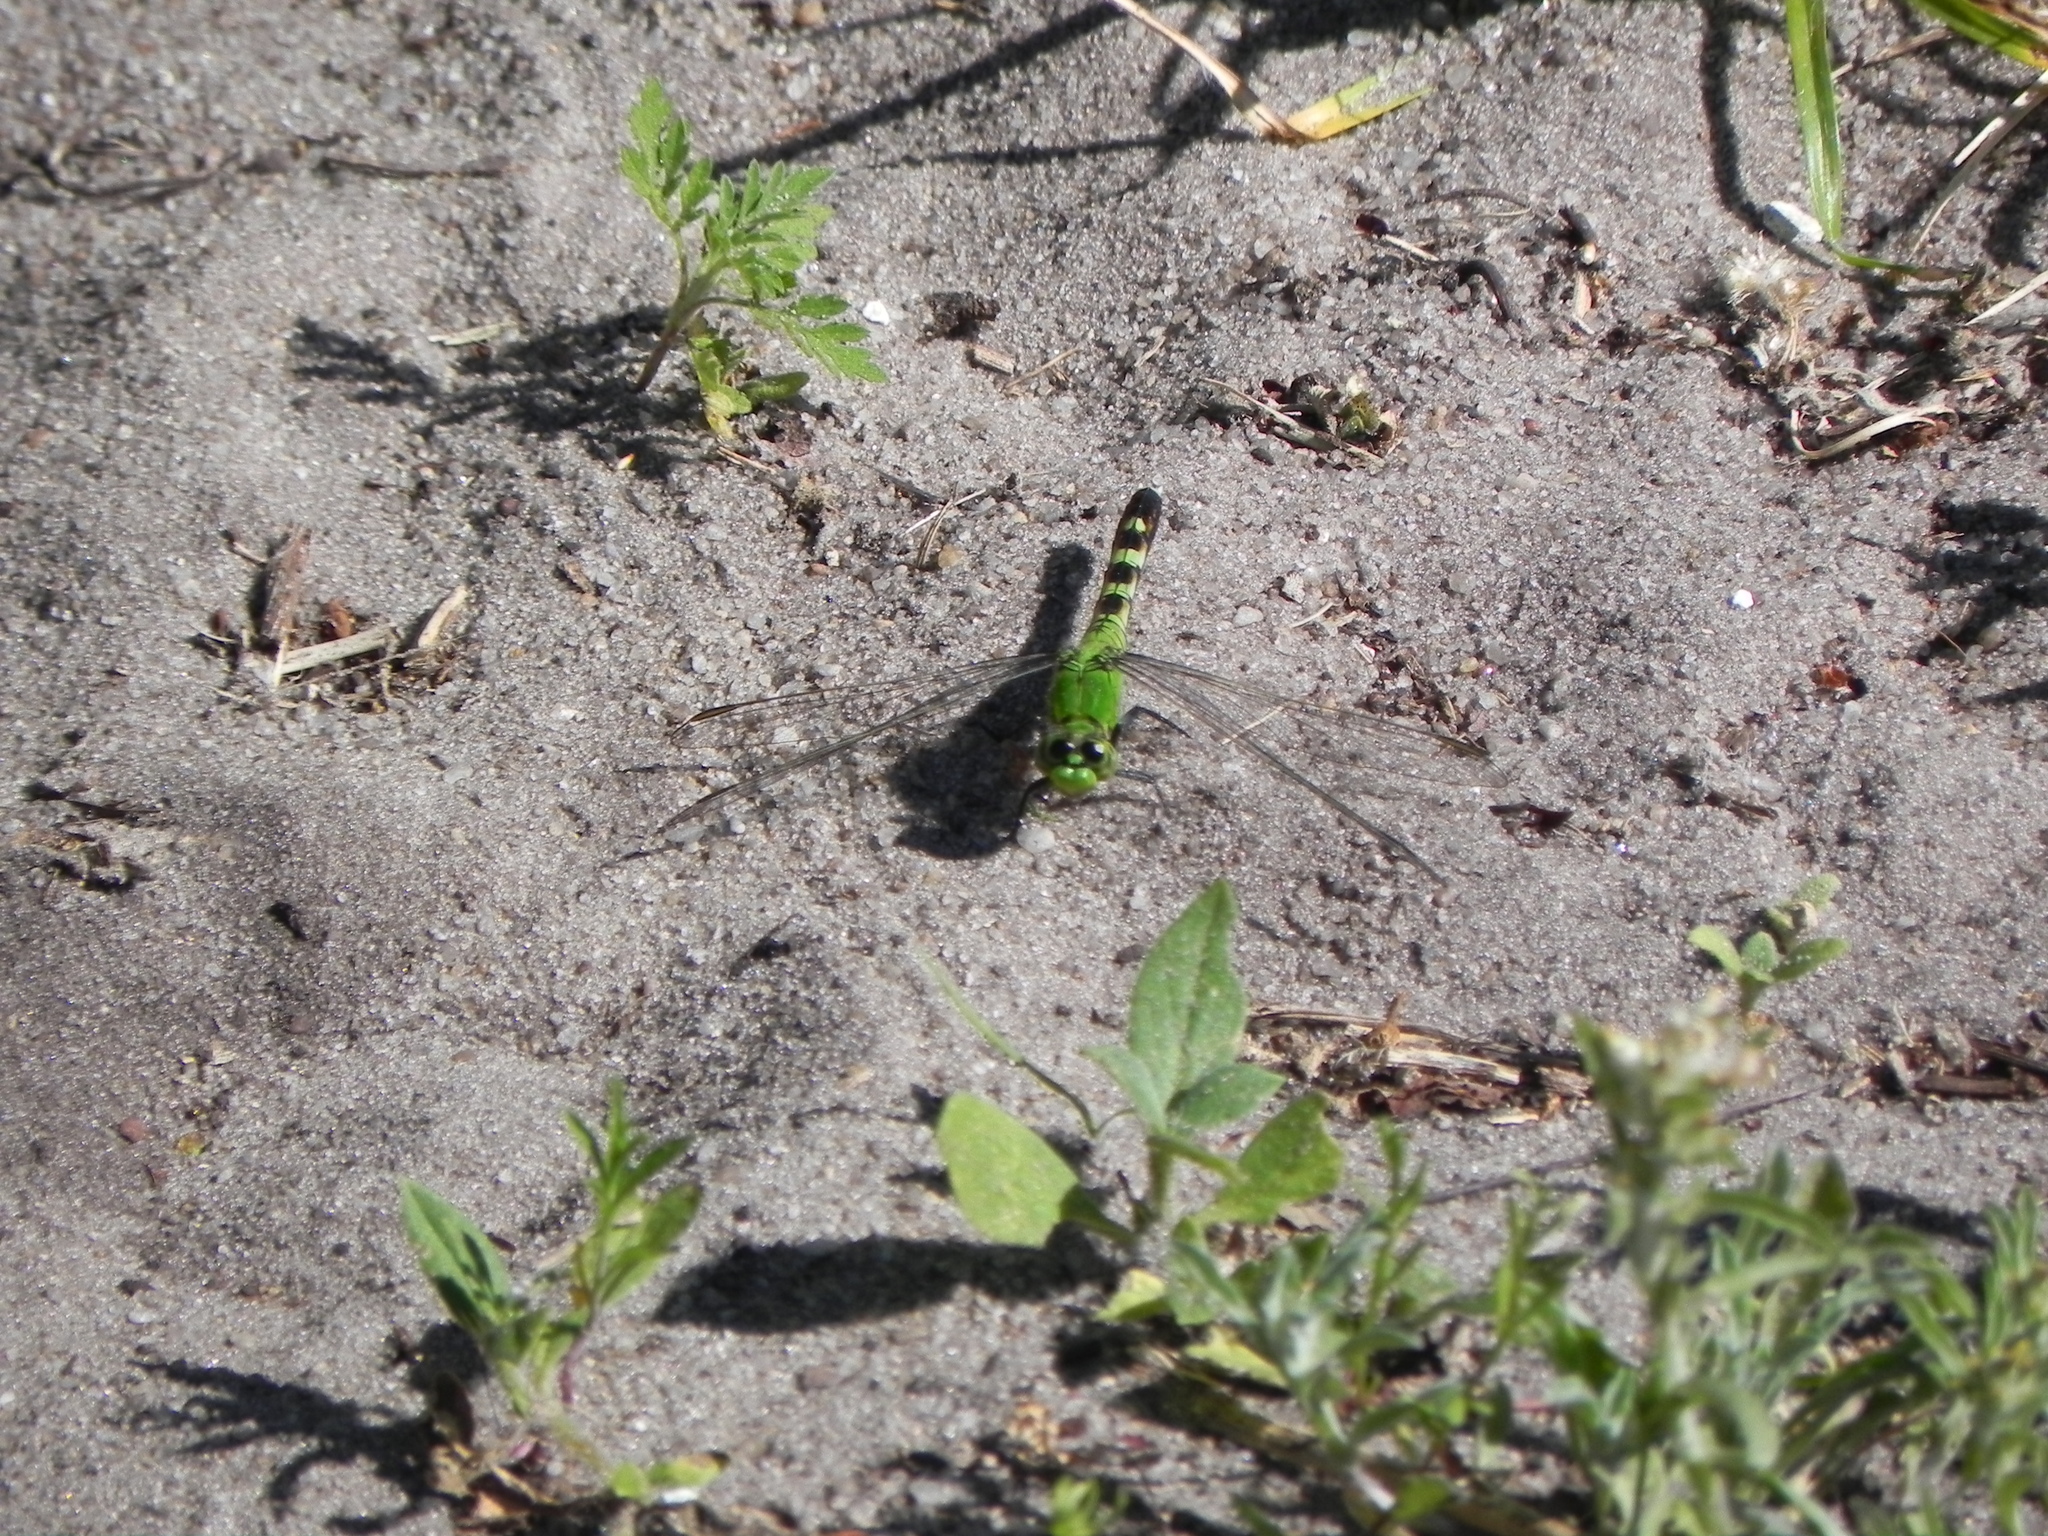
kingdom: Animalia
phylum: Arthropoda
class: Insecta
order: Odonata
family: Libellulidae
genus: Erythemis
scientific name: Erythemis simplicicollis
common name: Eastern pondhawk
